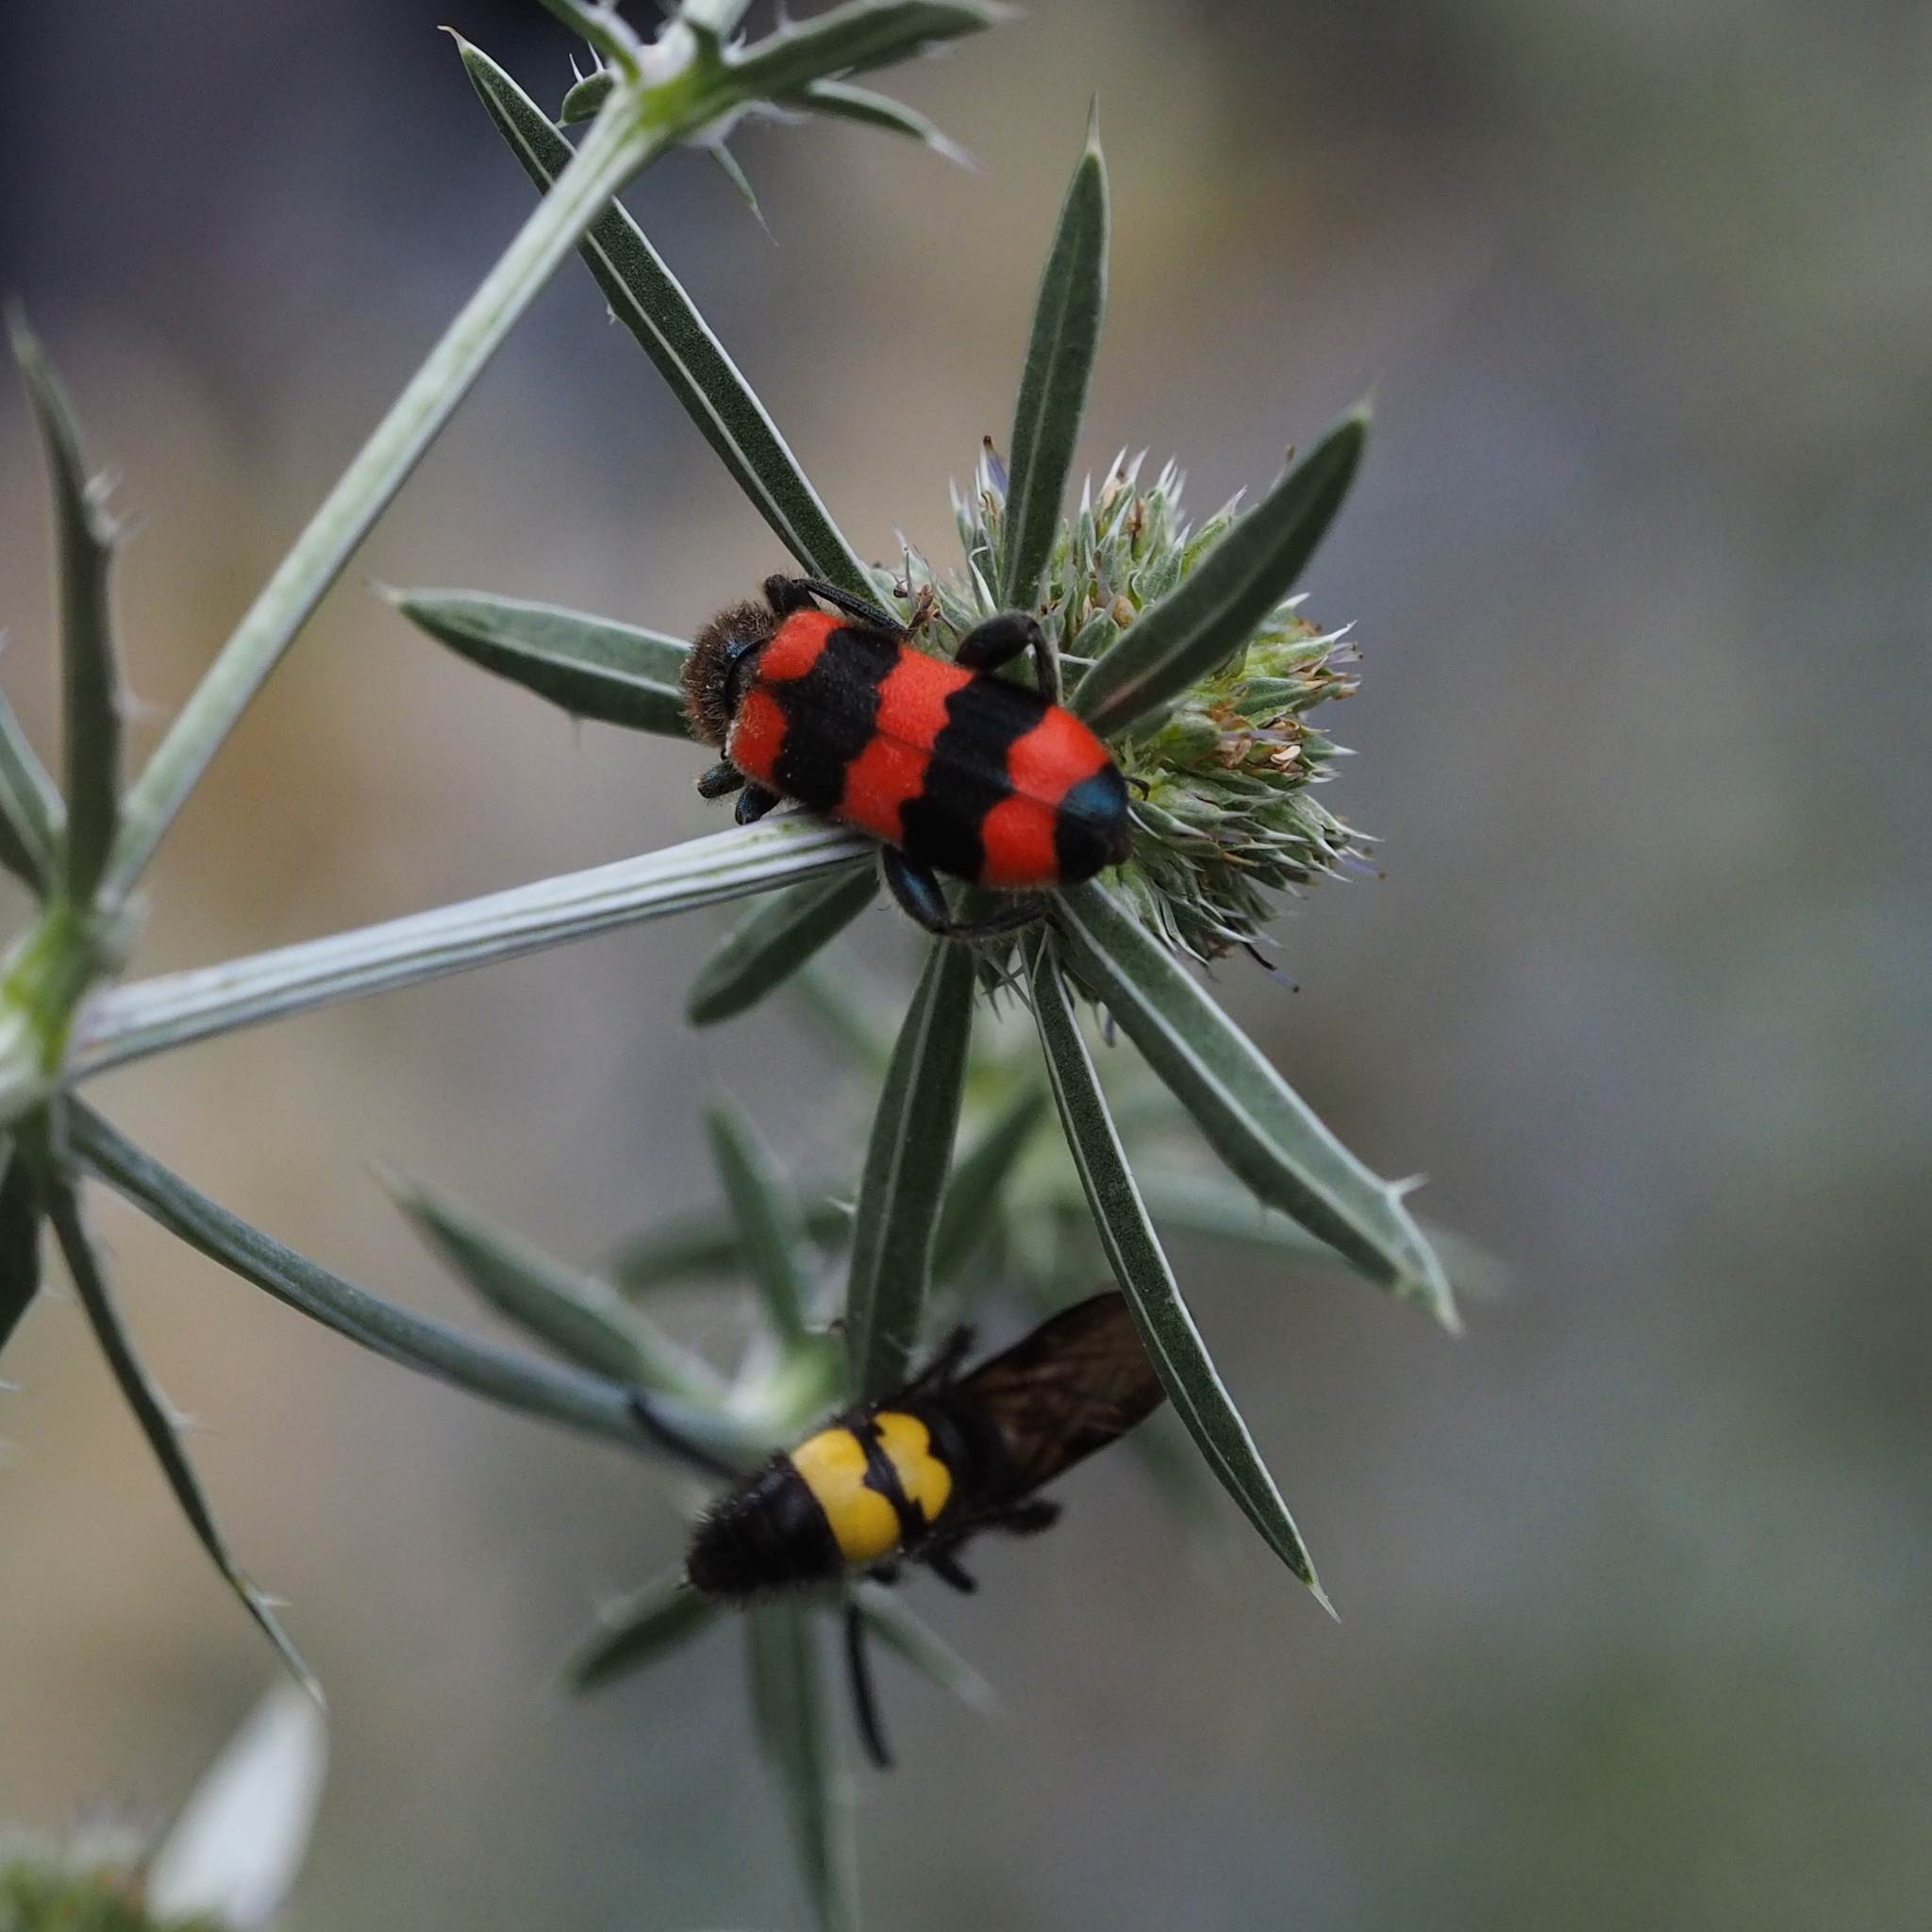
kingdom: Animalia
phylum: Arthropoda
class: Insecta
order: Hymenoptera
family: Scoliidae
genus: Scolia
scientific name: Scolia hirta
